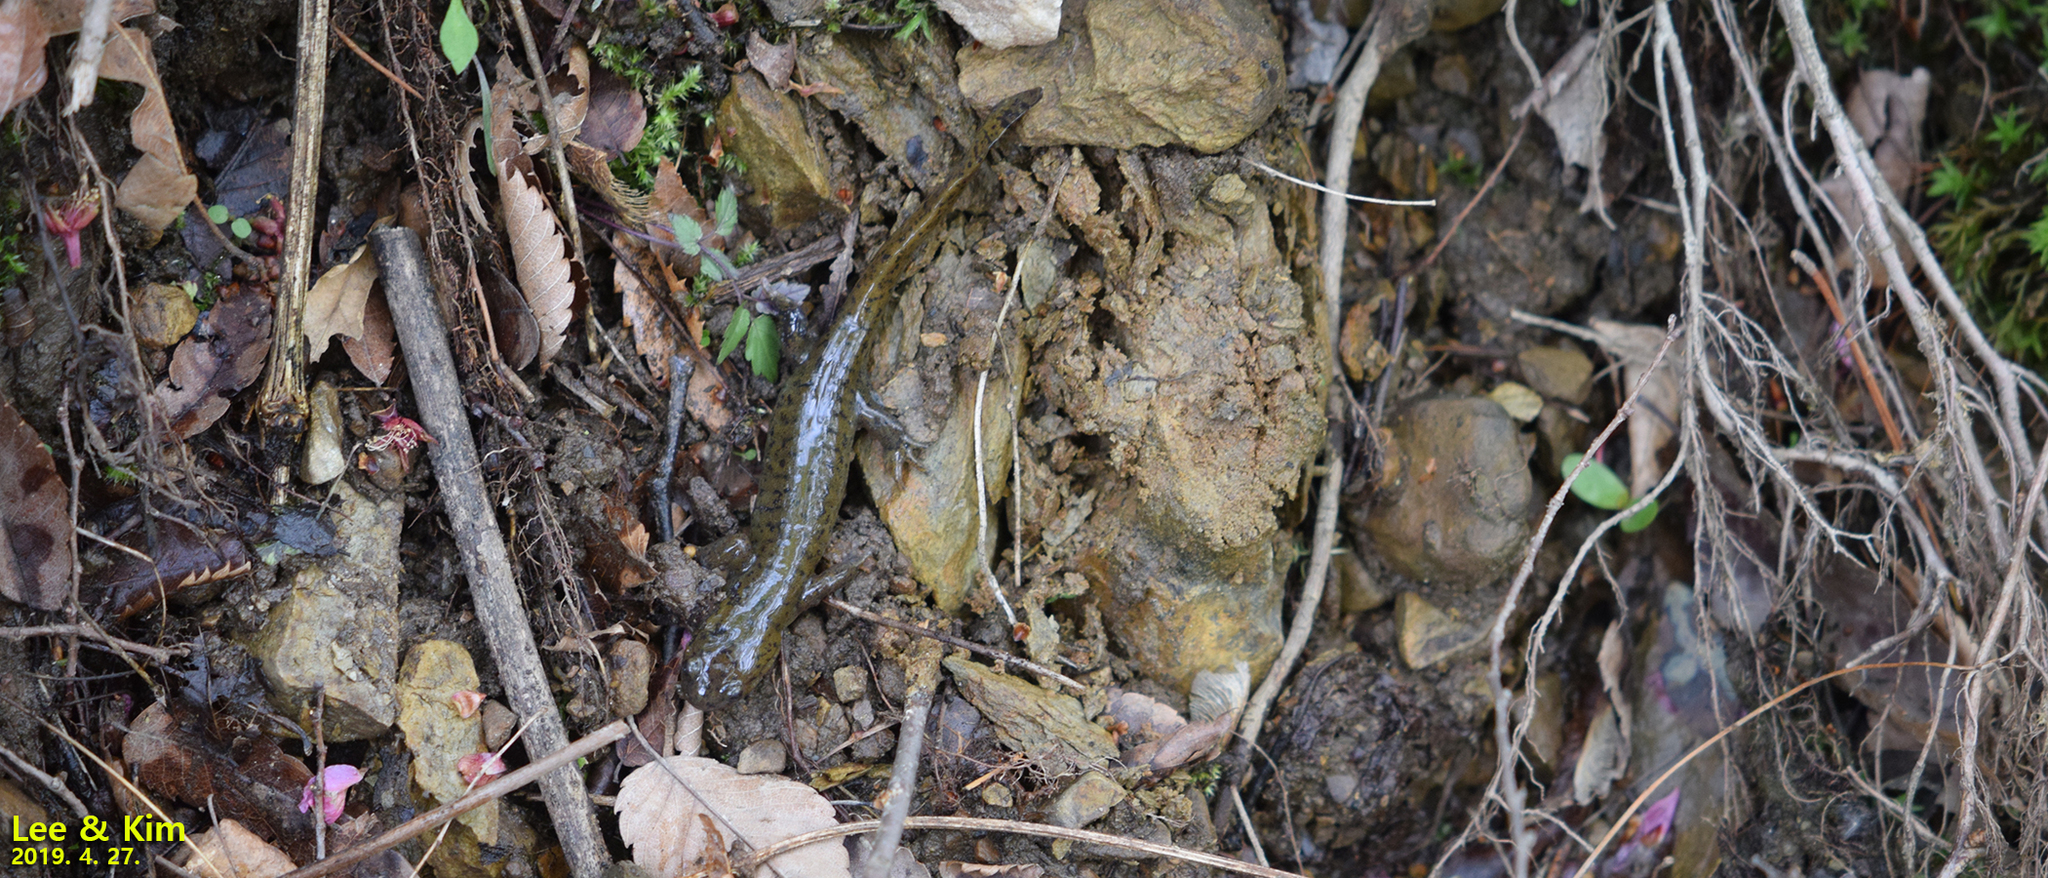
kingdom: Animalia
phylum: Chordata
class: Amphibia
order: Caudata
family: Hynobiidae
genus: Hynobius
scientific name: Hynobius leechii
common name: Gensan salamander
